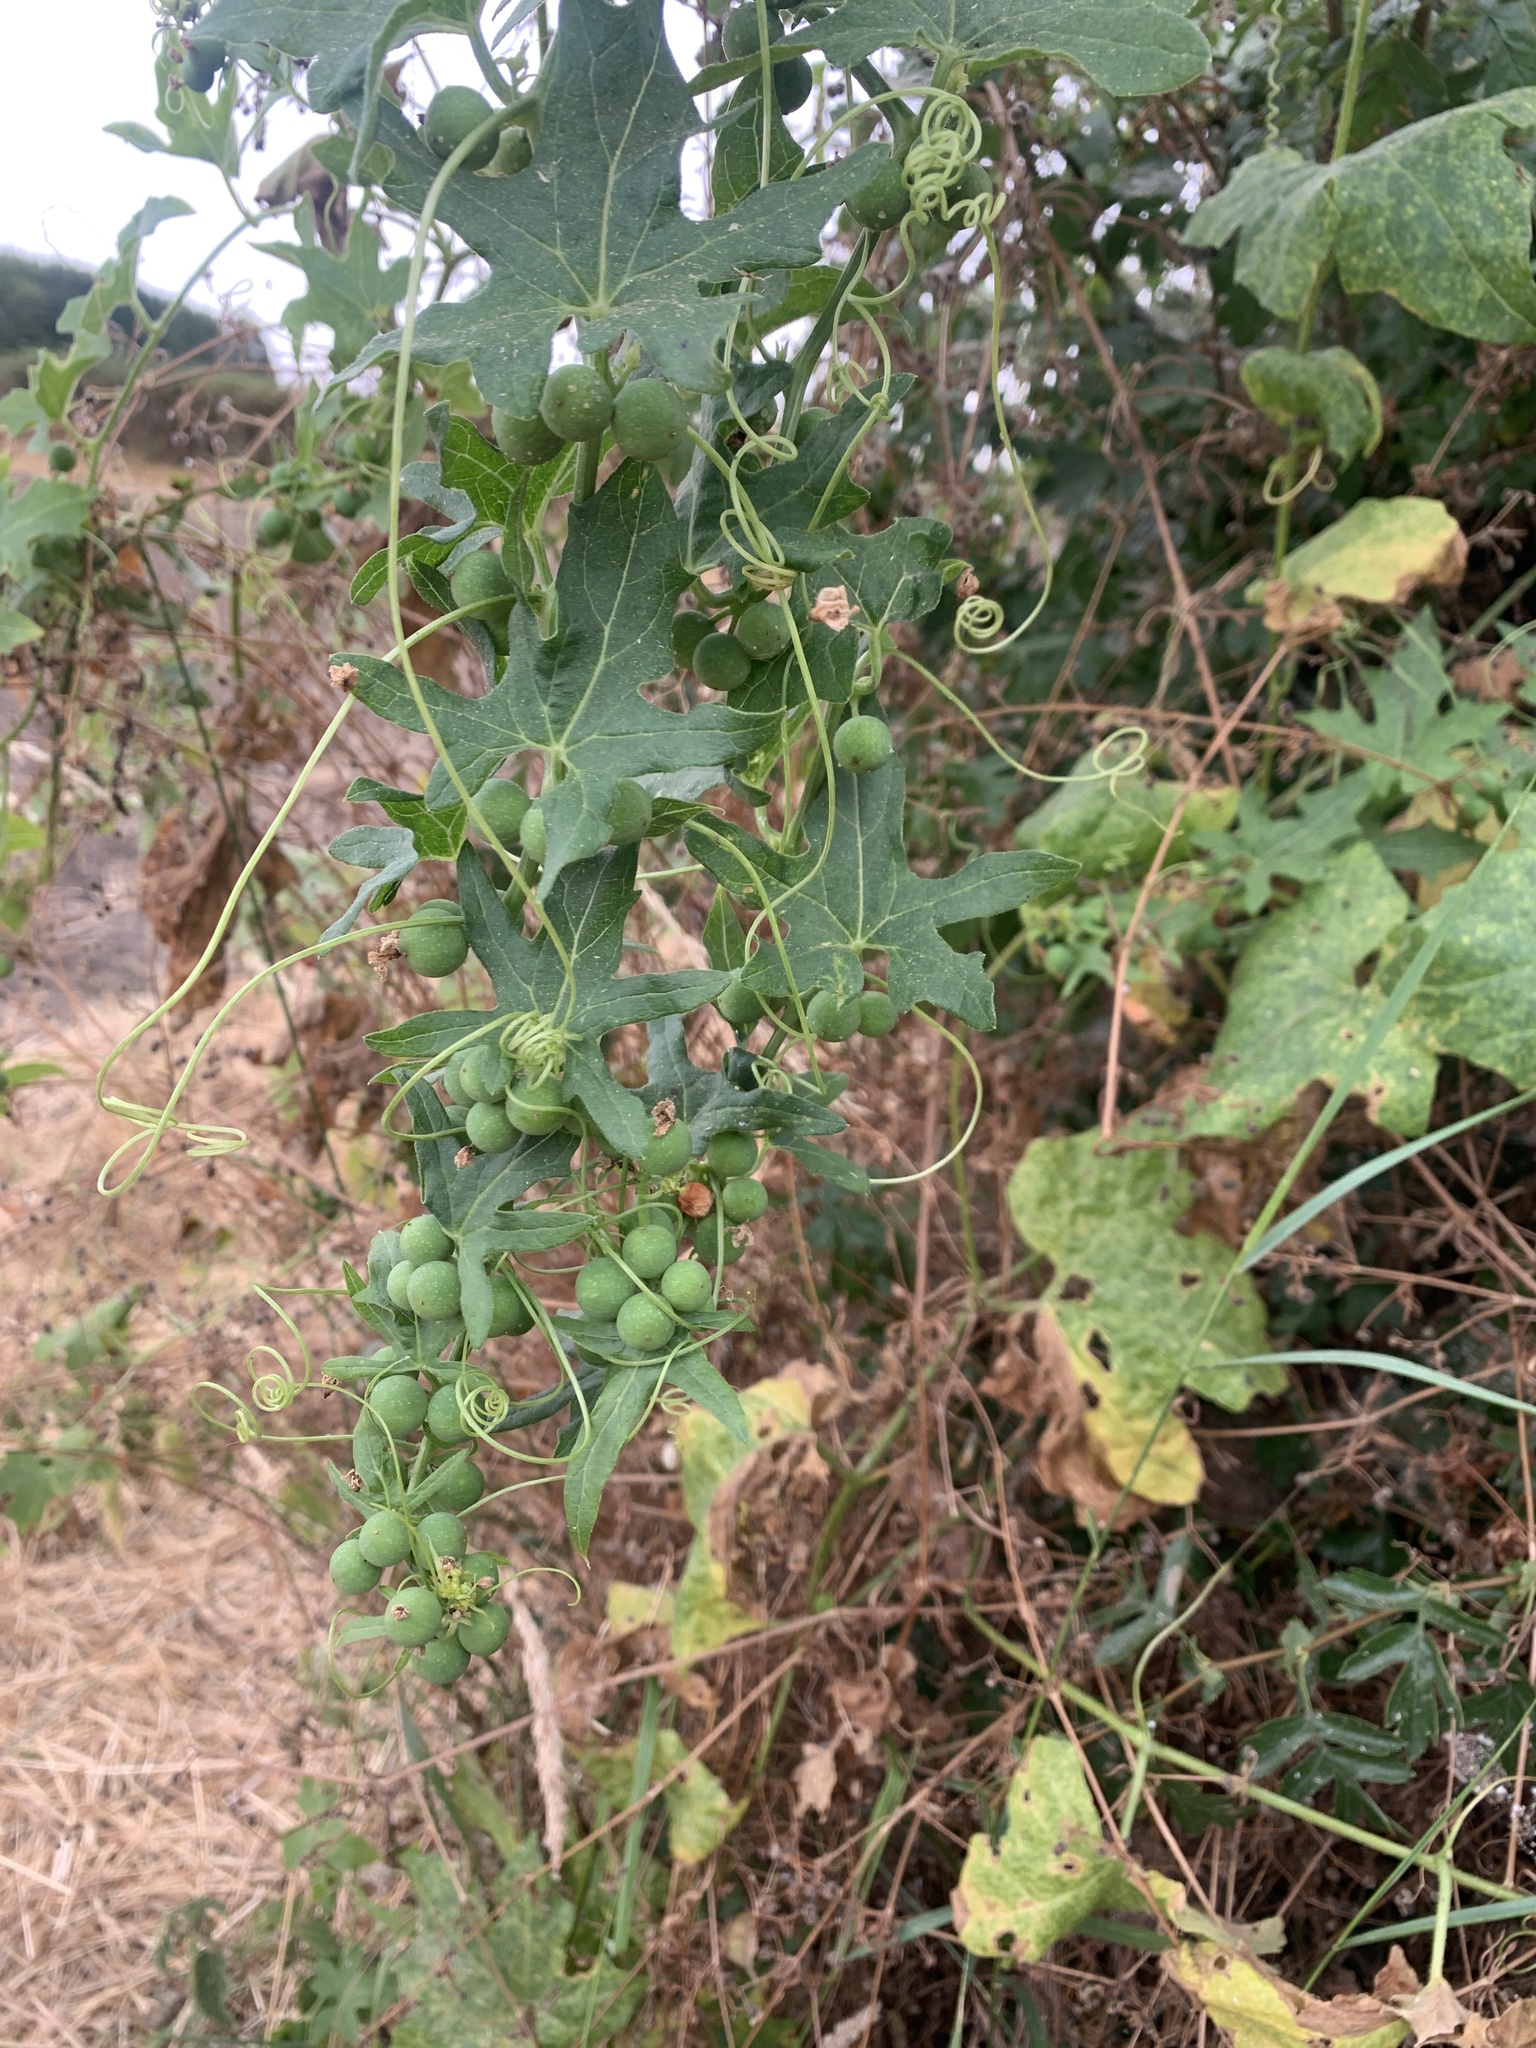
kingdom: Plantae
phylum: Tracheophyta
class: Magnoliopsida
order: Cucurbitales
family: Cucurbitaceae
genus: Bryonia
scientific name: Bryonia dioica
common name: White bryony
